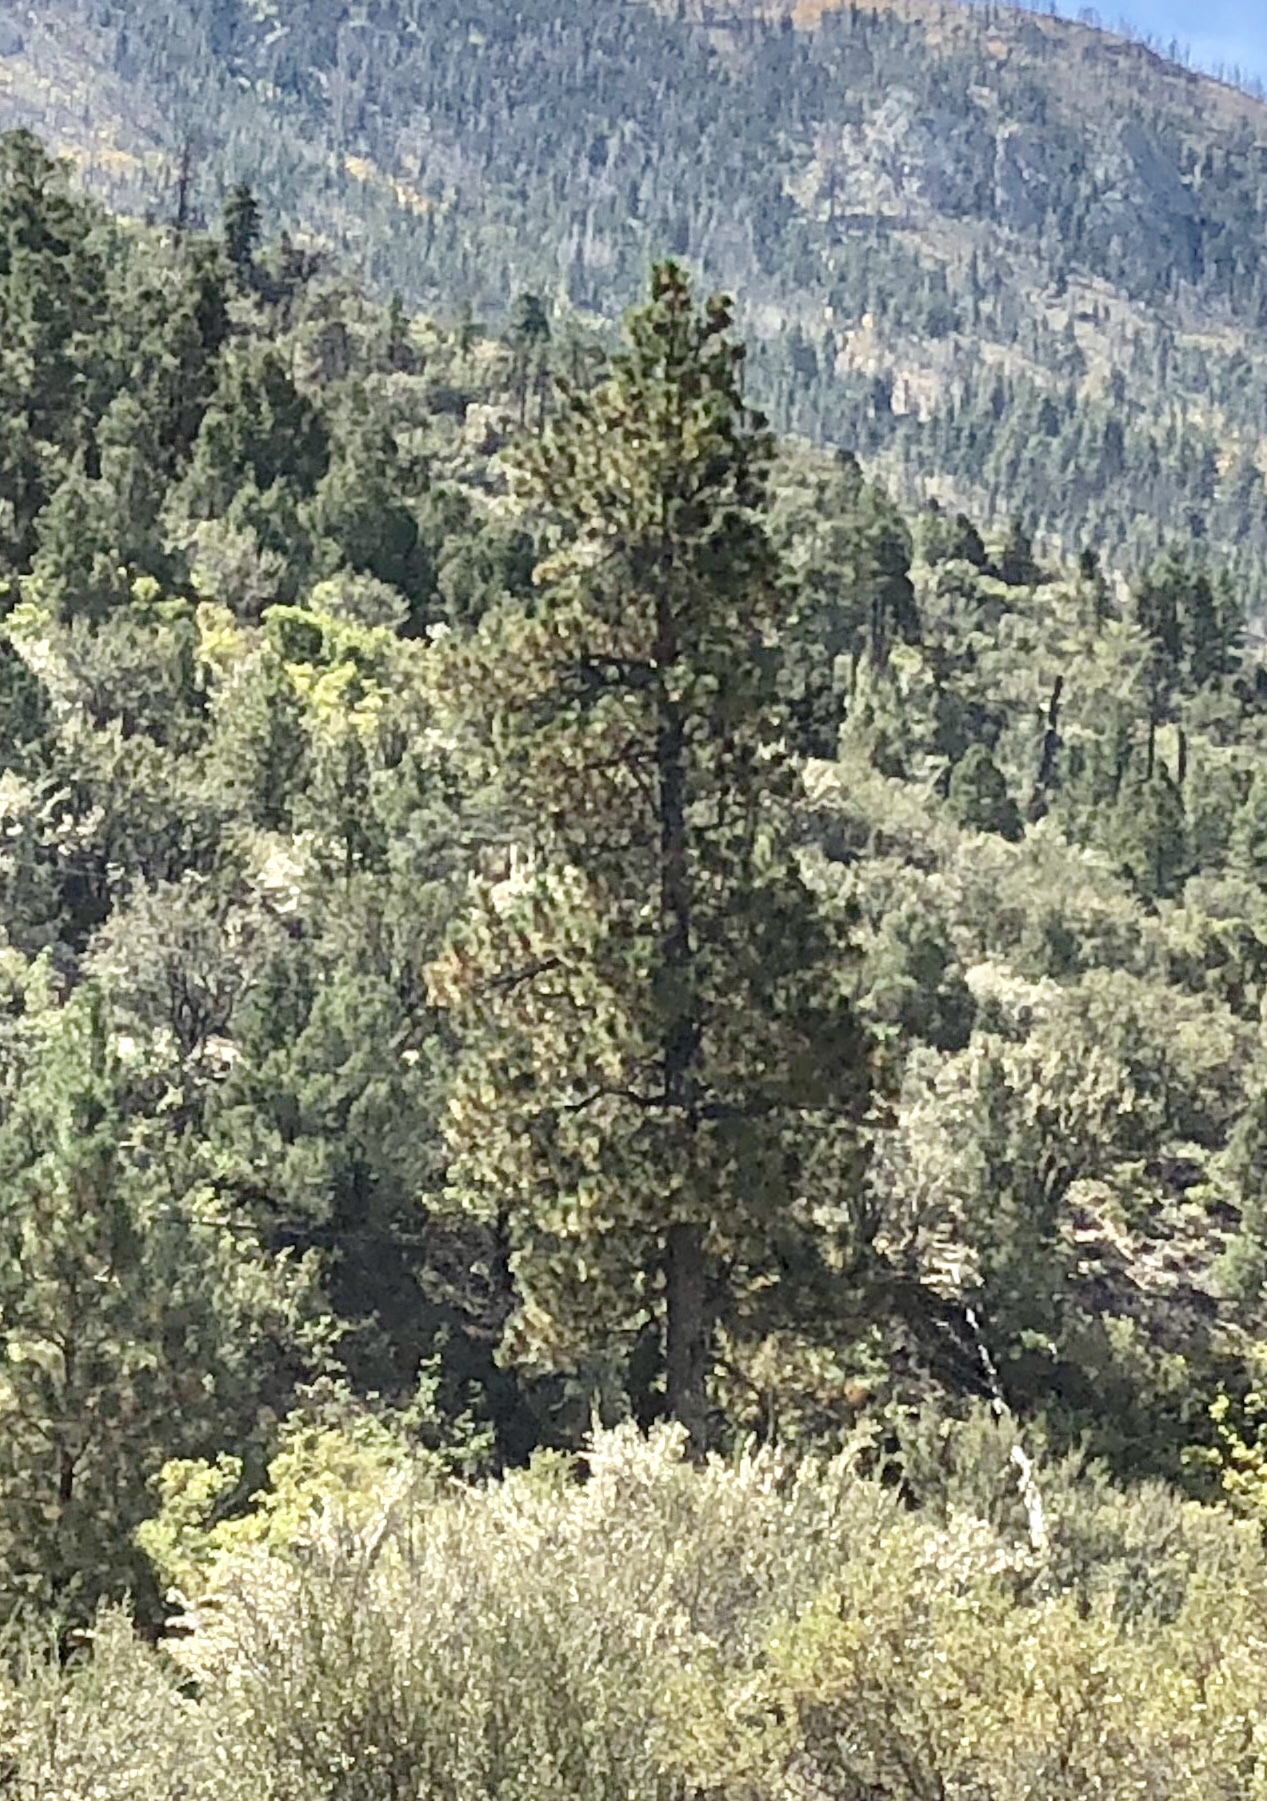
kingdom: Plantae
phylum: Tracheophyta
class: Pinopsida
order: Pinales
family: Pinaceae
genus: Pinus
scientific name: Pinus ponderosa
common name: Western yellow-pine
